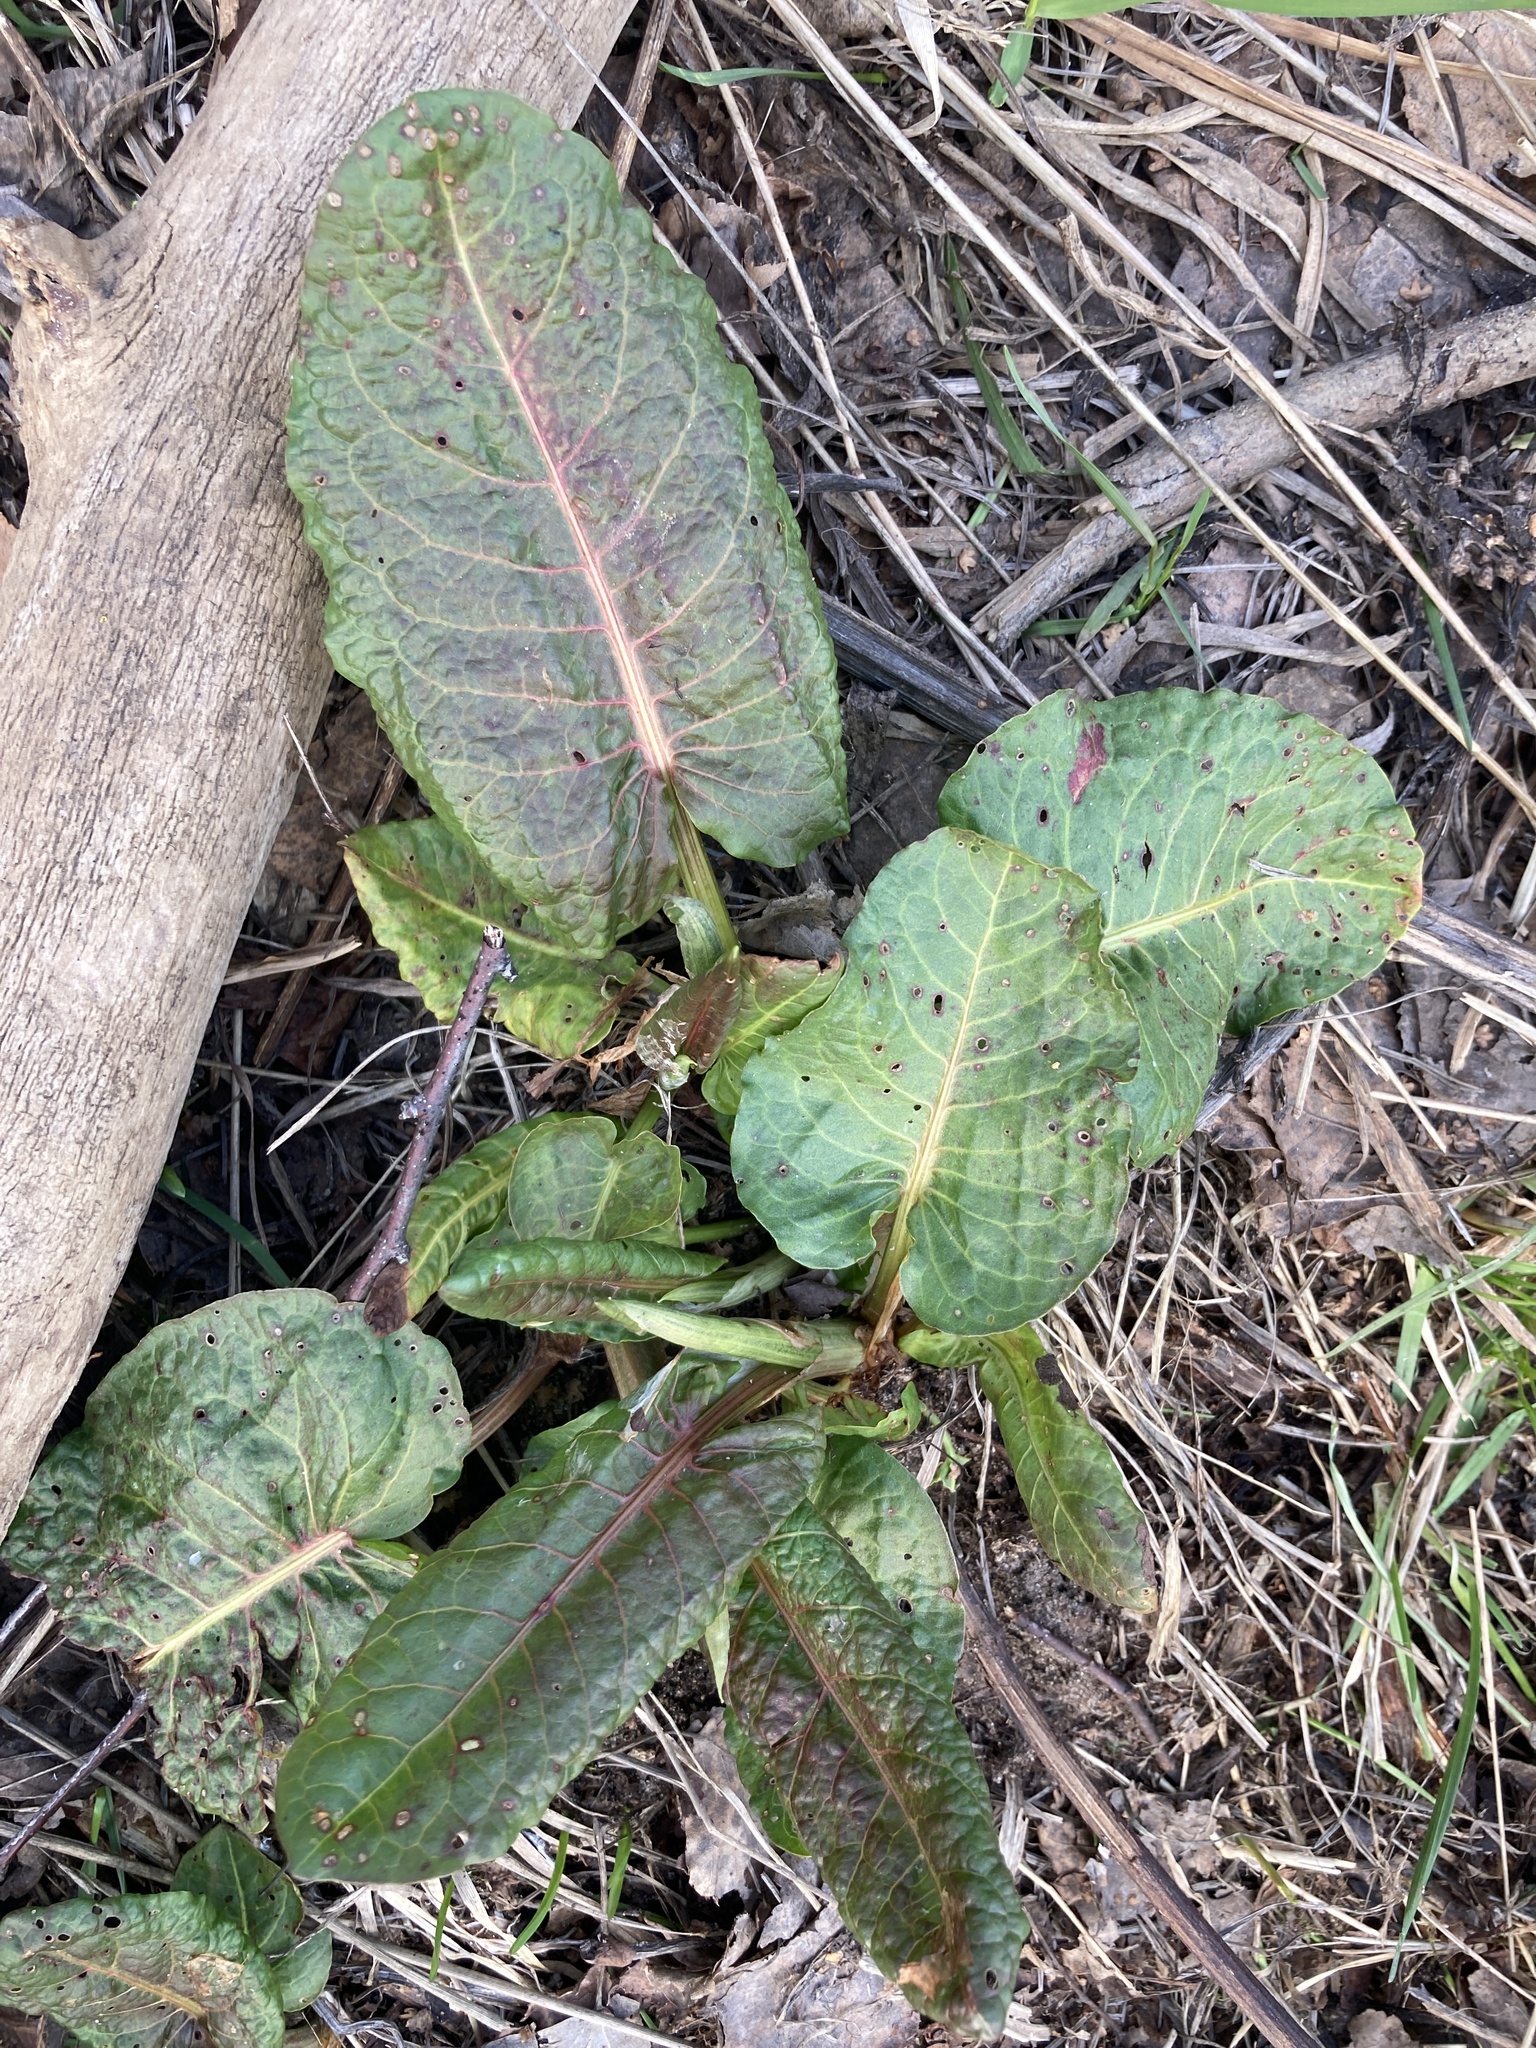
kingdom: Plantae
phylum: Tracheophyta
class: Magnoliopsida
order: Caryophyllales
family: Polygonaceae
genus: Rumex
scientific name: Rumex obtusifolius
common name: Bitter dock
